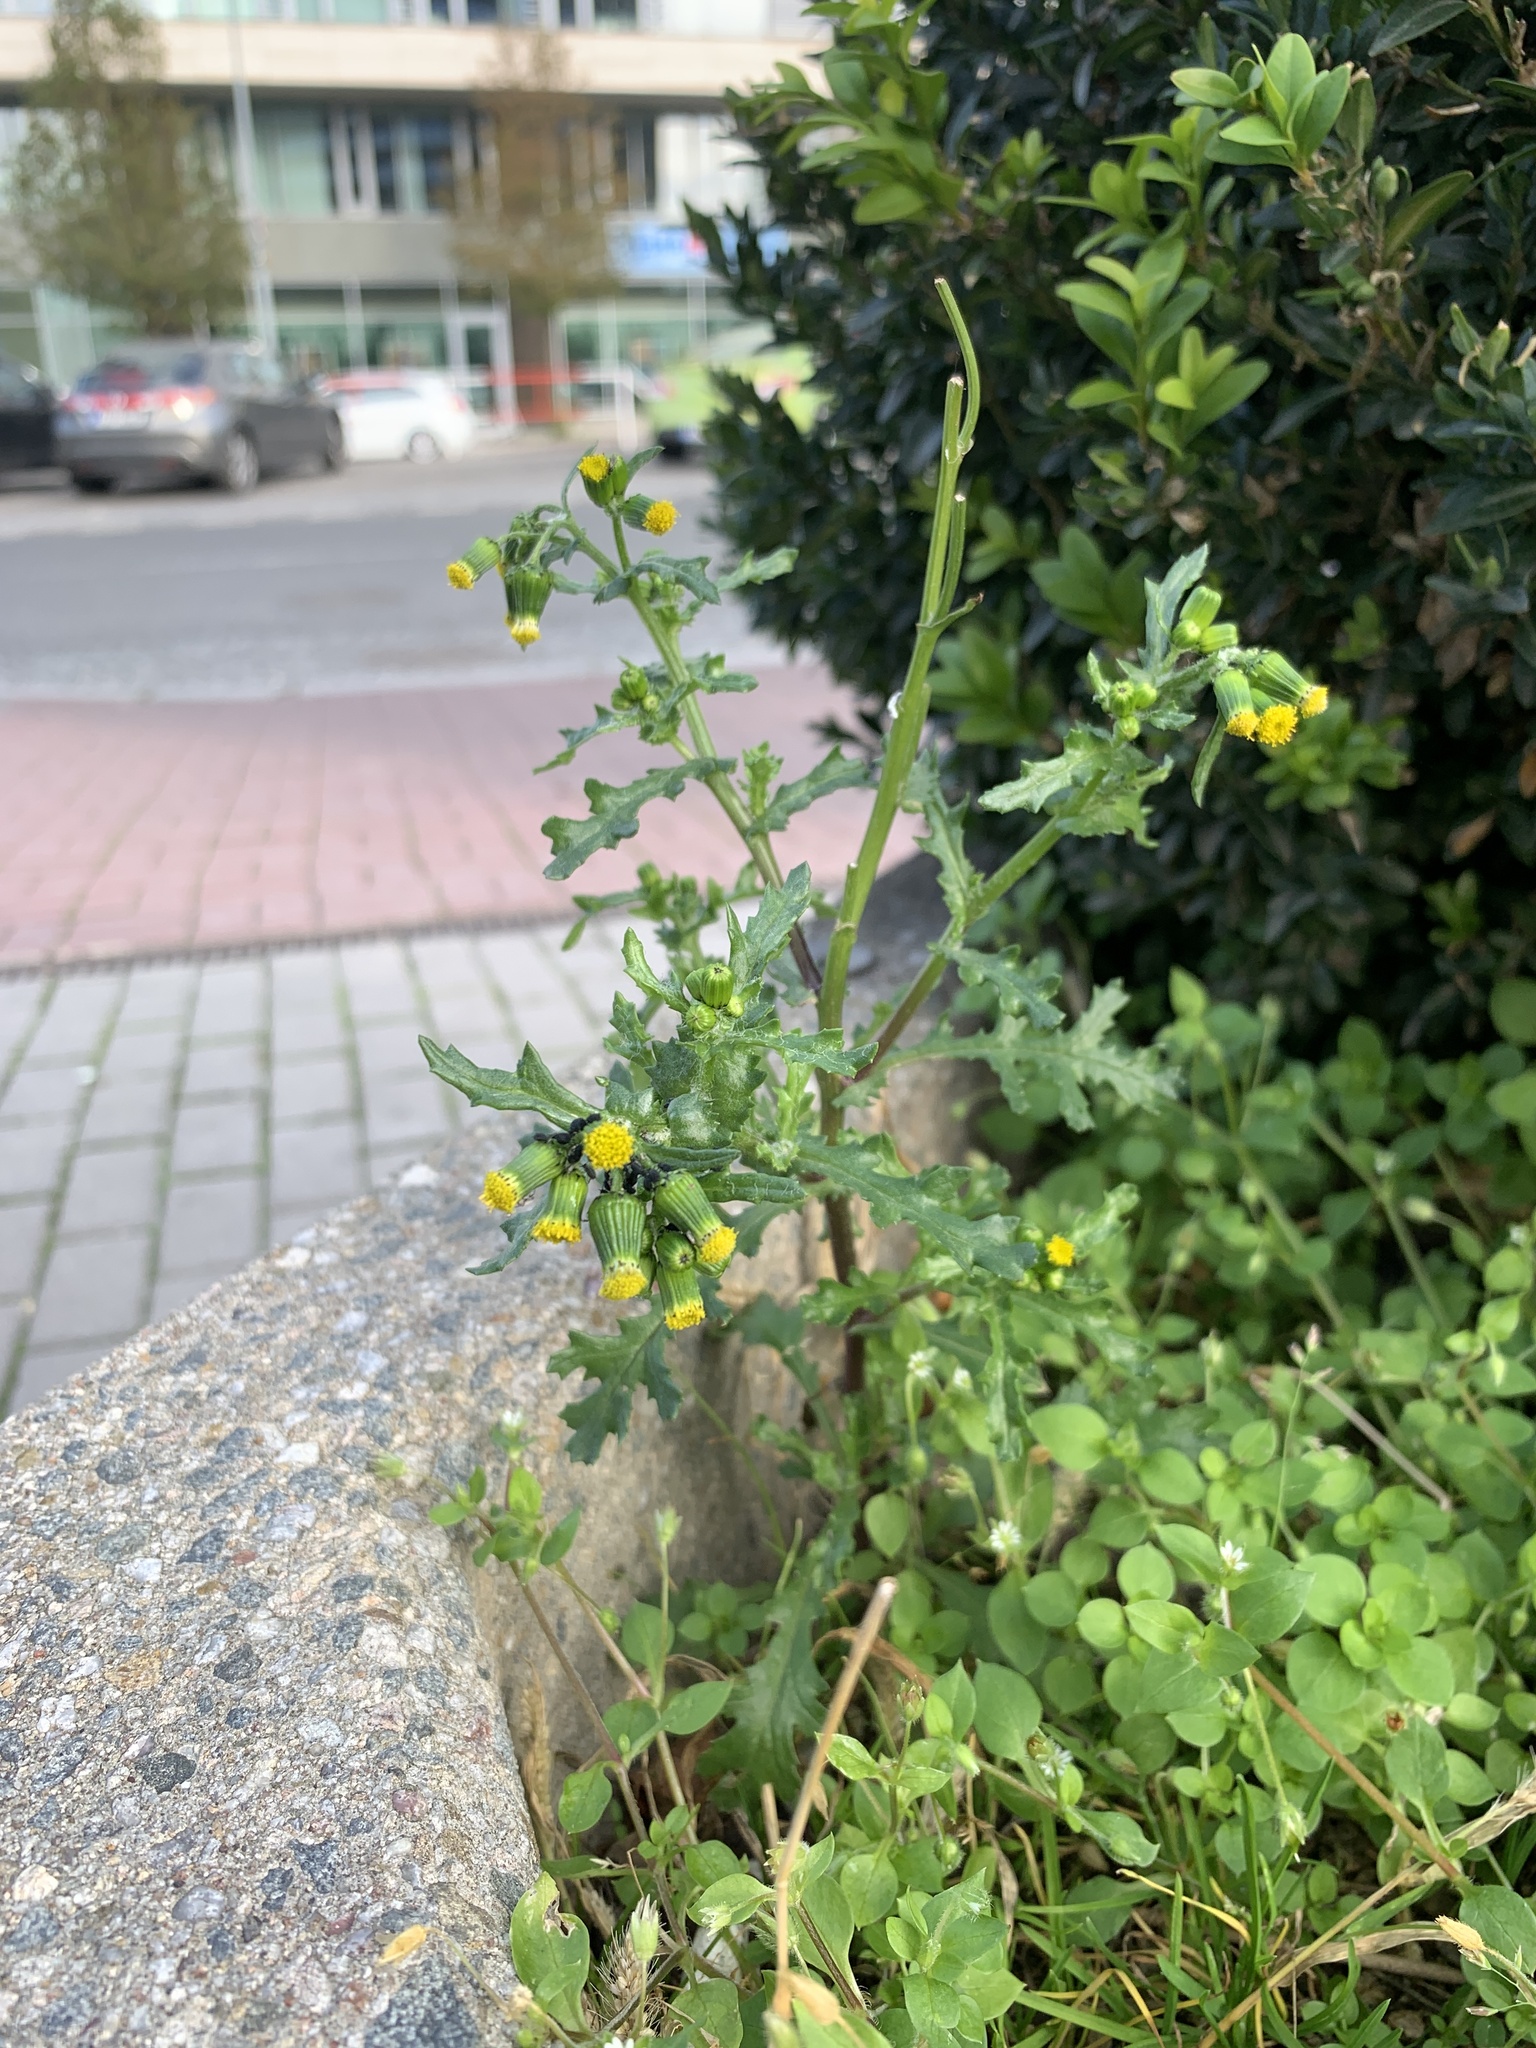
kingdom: Plantae
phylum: Tracheophyta
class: Magnoliopsida
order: Asterales
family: Asteraceae
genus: Senecio
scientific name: Senecio vulgaris
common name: Old-man-in-the-spring
